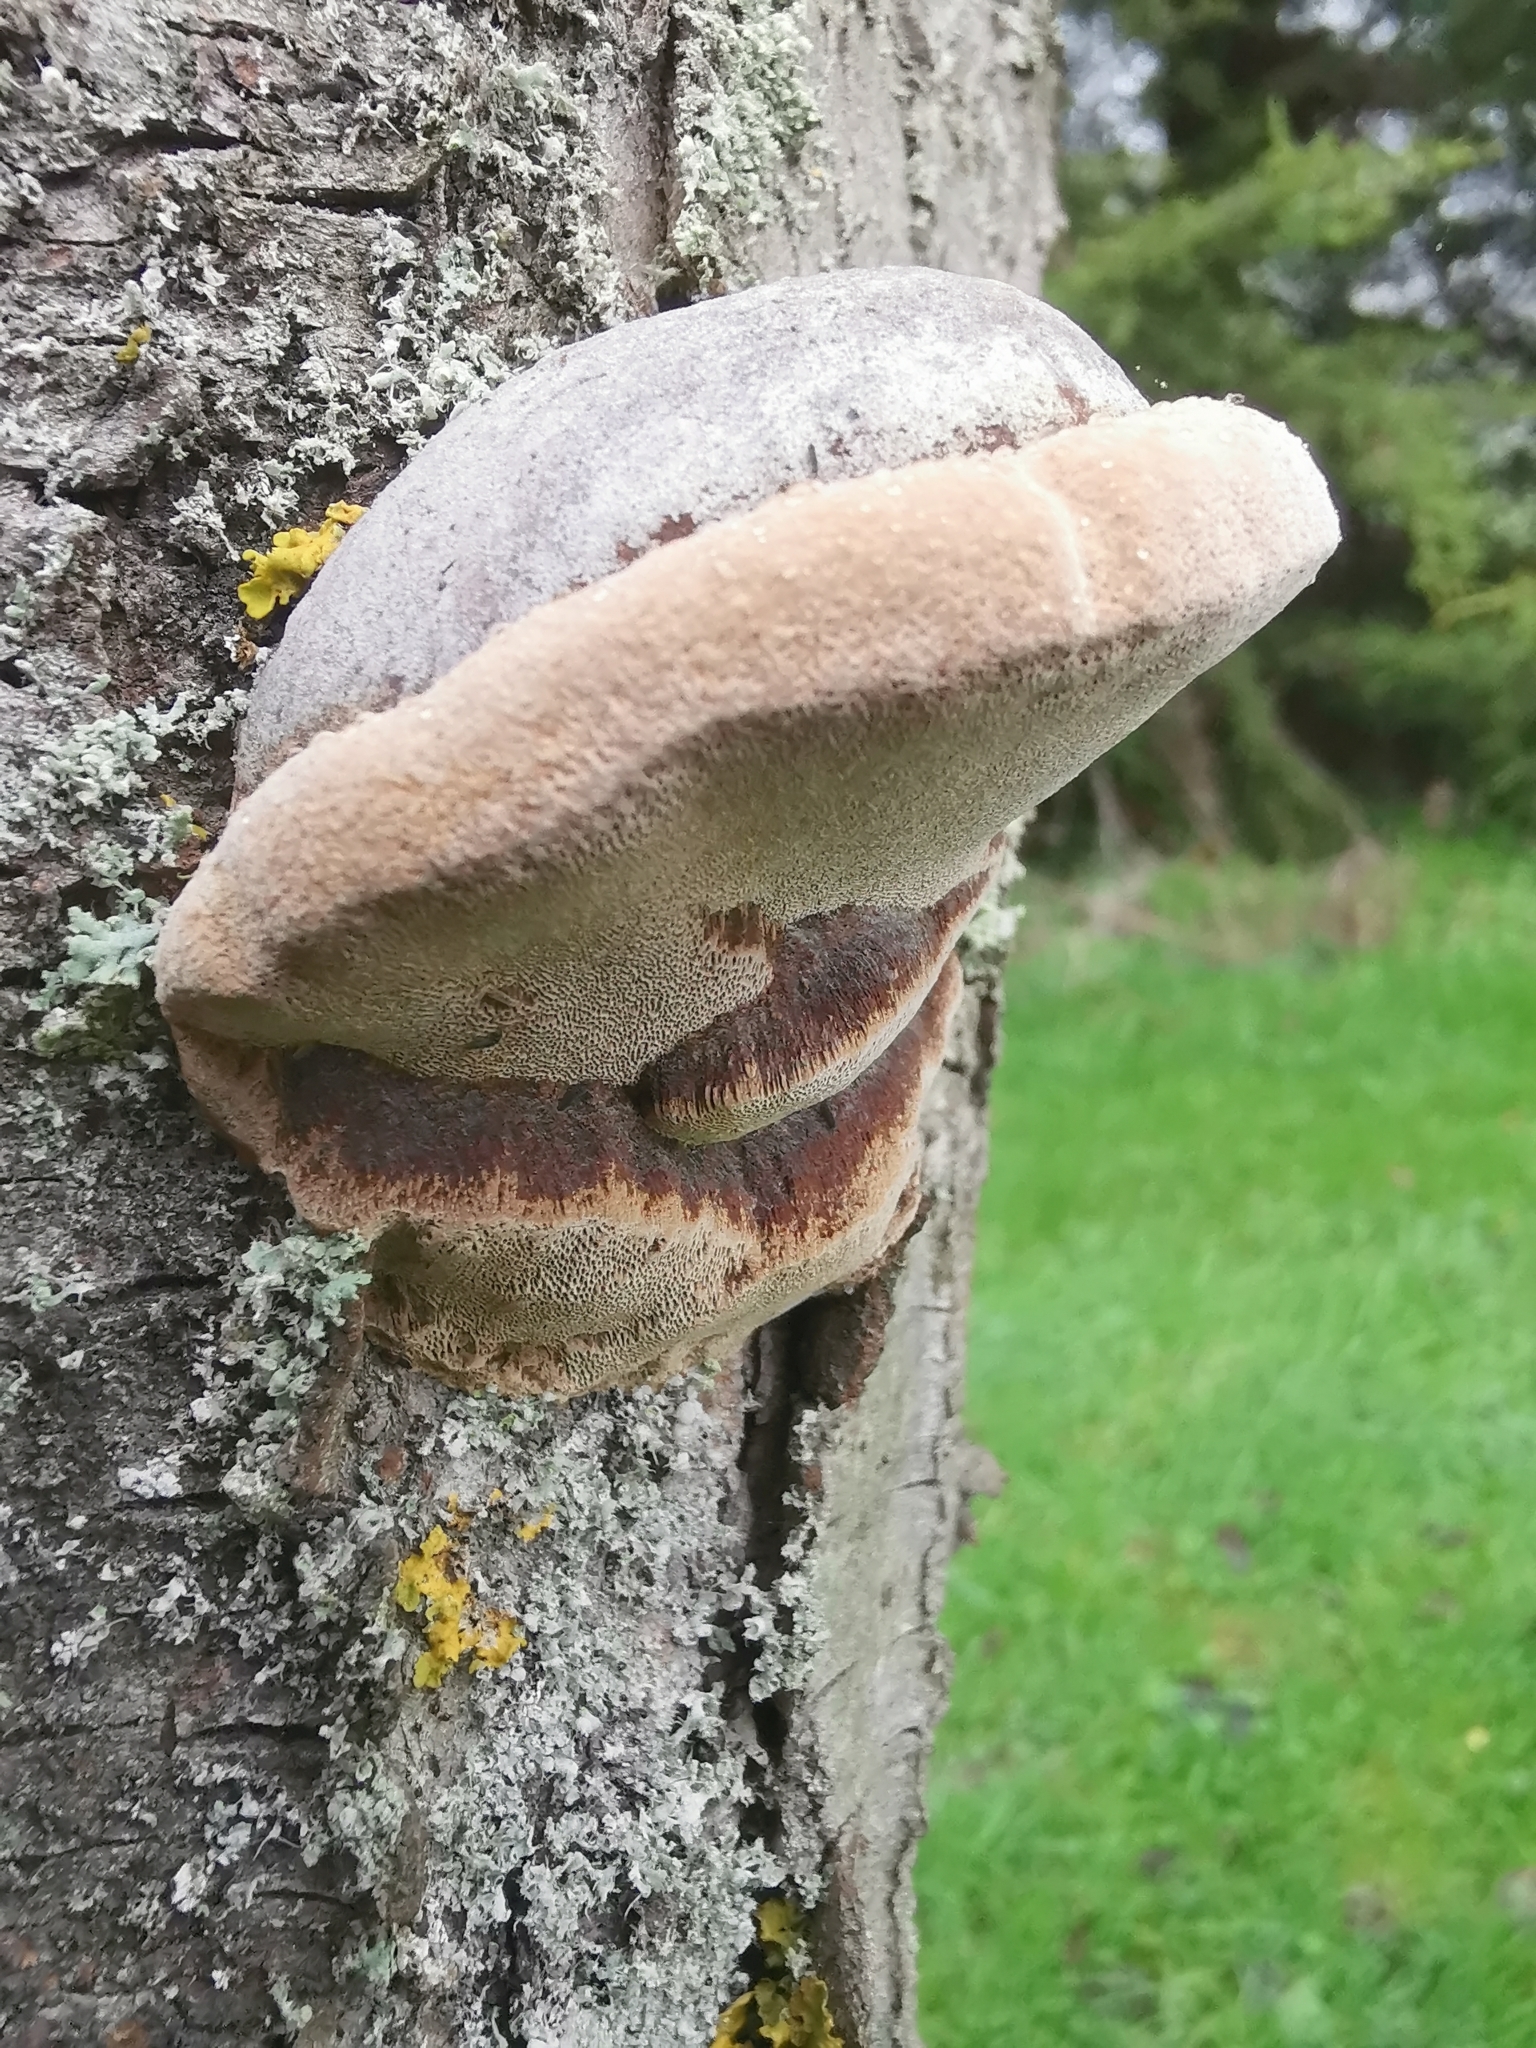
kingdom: Fungi
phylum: Basidiomycota
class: Agaricomycetes
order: Hymenochaetales
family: Hymenochaetaceae
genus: Phellinus
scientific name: Phellinus pomaceus
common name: Cushion bracket
